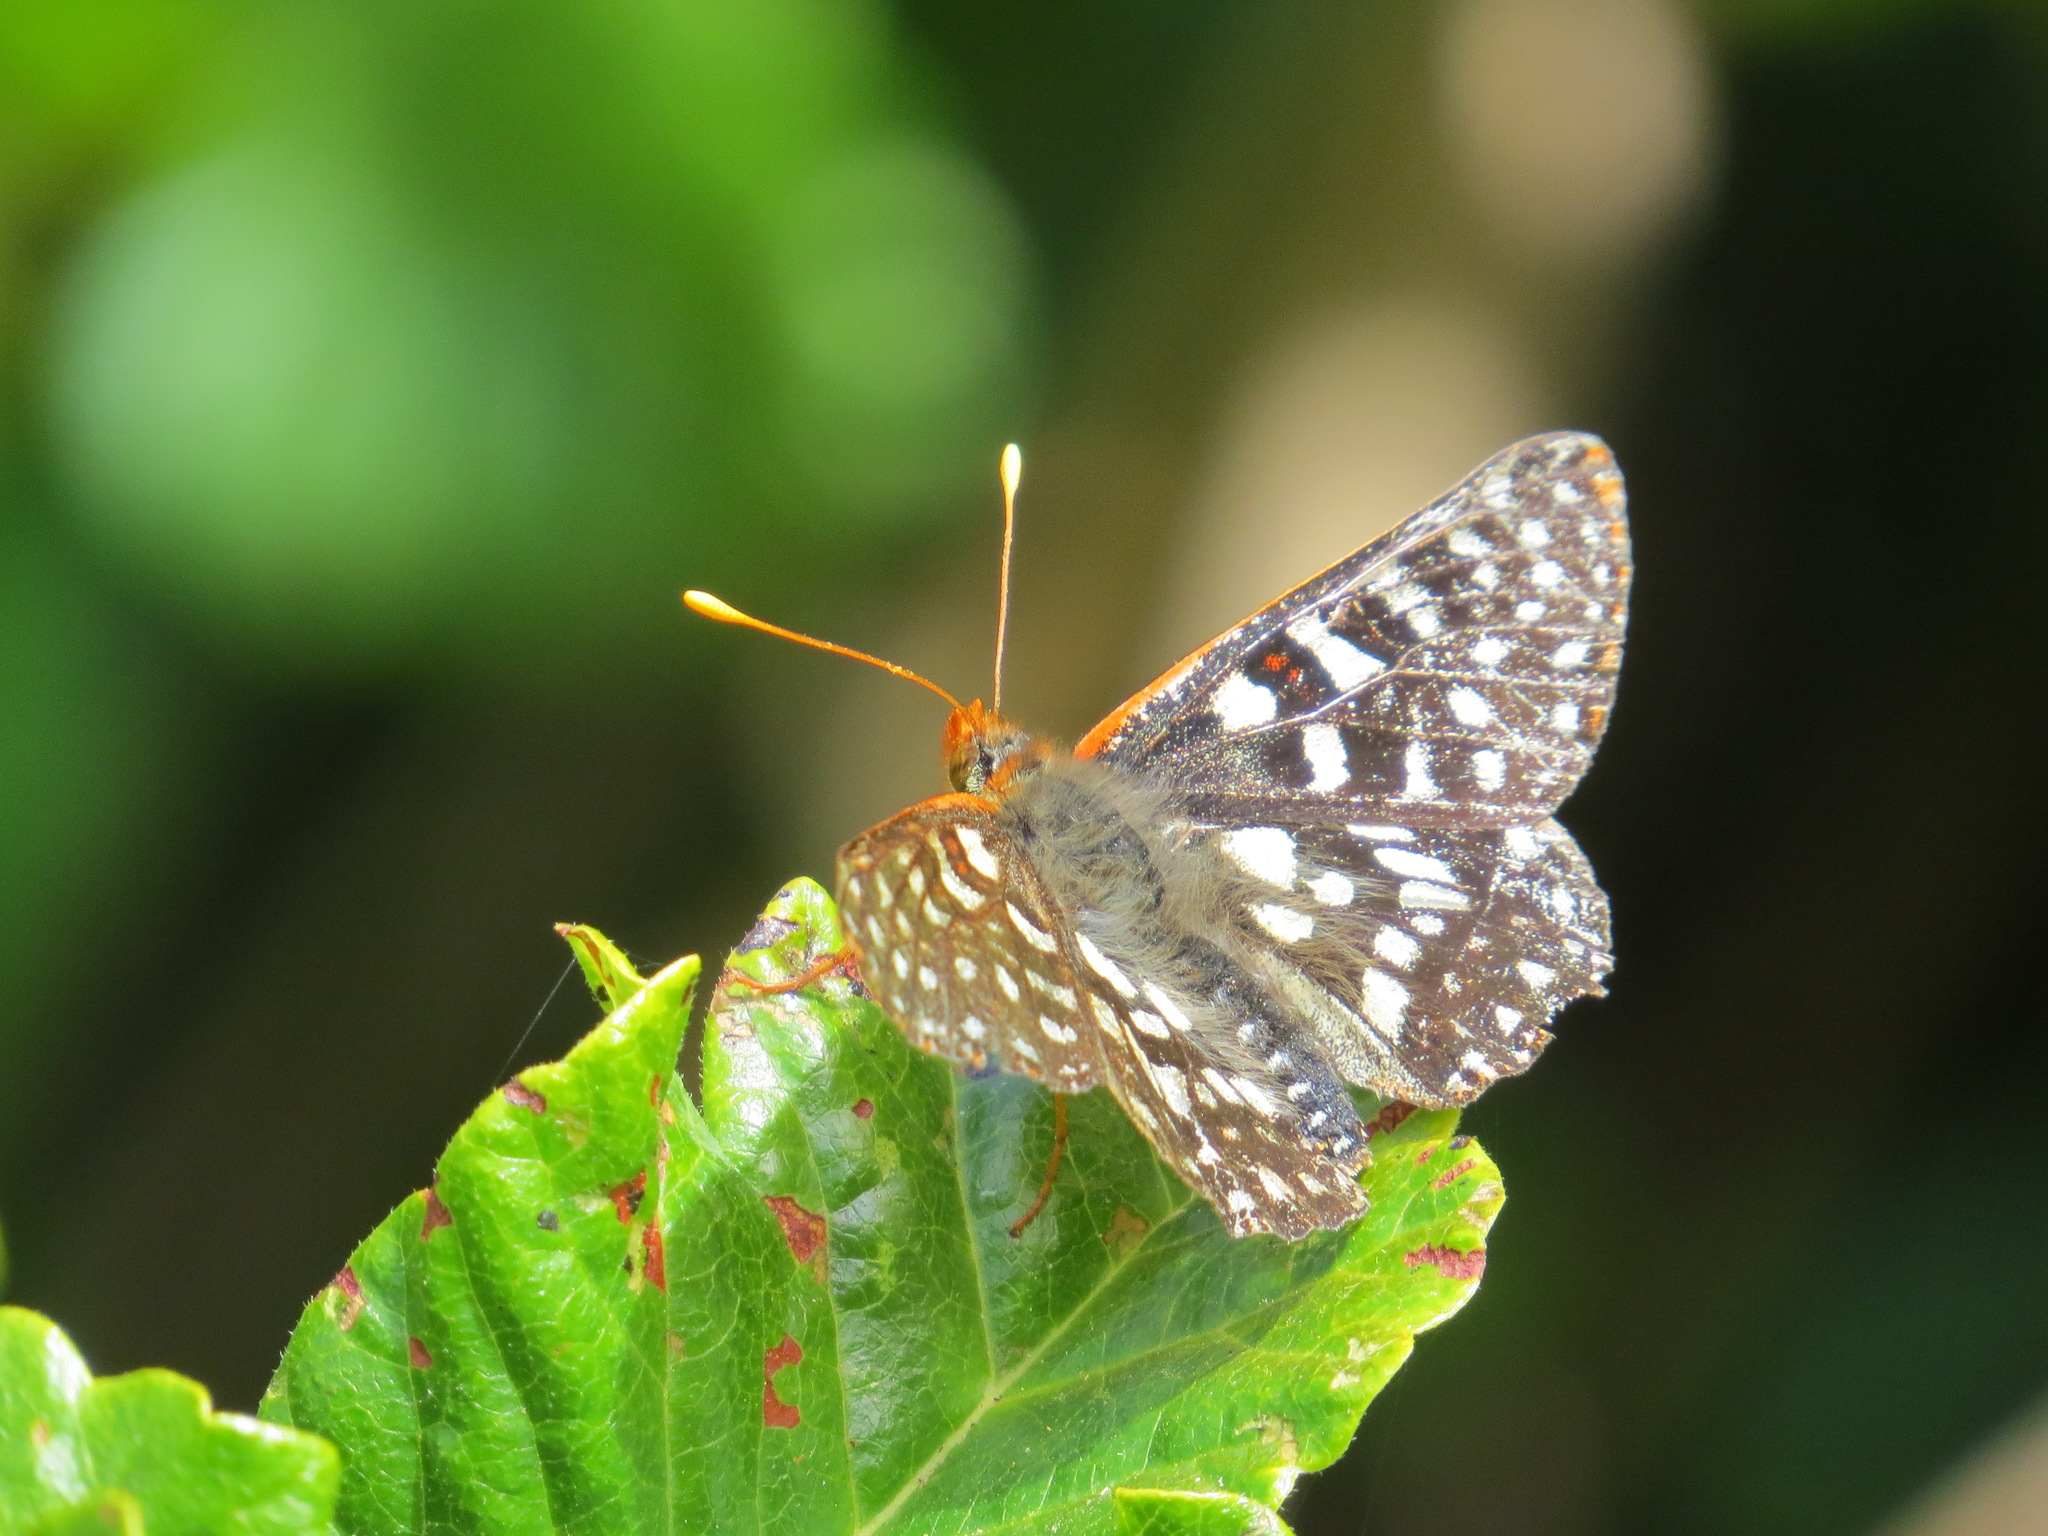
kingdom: Animalia
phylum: Arthropoda
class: Insecta
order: Lepidoptera
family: Nymphalidae
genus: Occidryas
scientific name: Occidryas chalcedona
